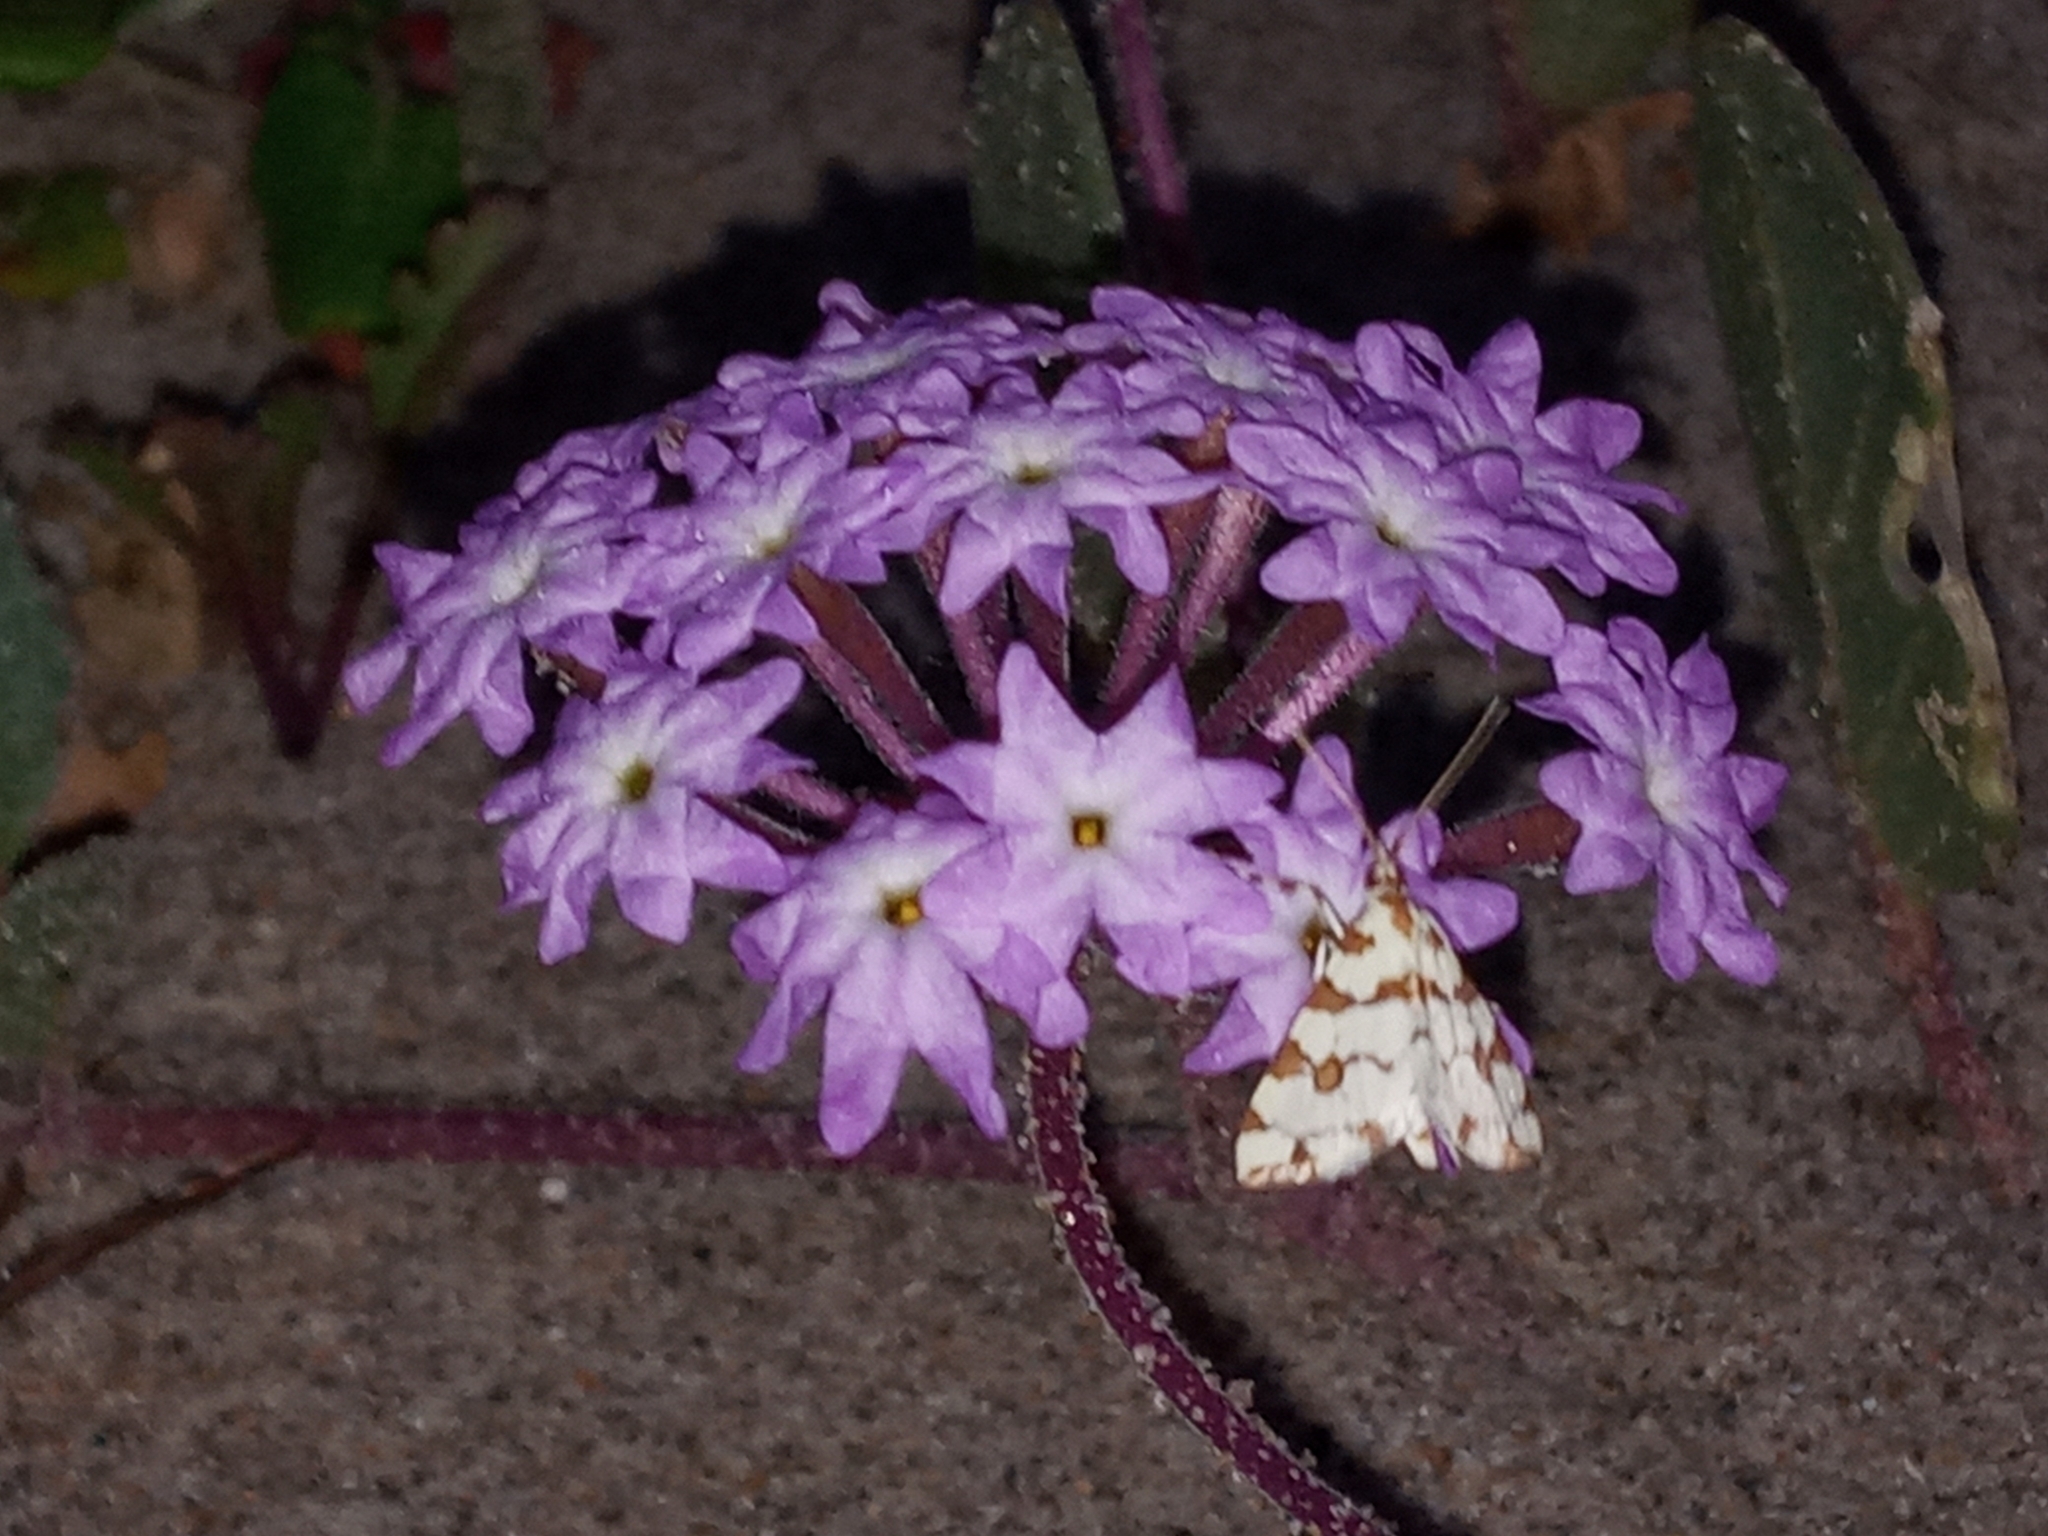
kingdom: Animalia
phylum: Arthropoda
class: Insecta
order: Lepidoptera
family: Crambidae
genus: Conchylodes
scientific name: Conchylodes
